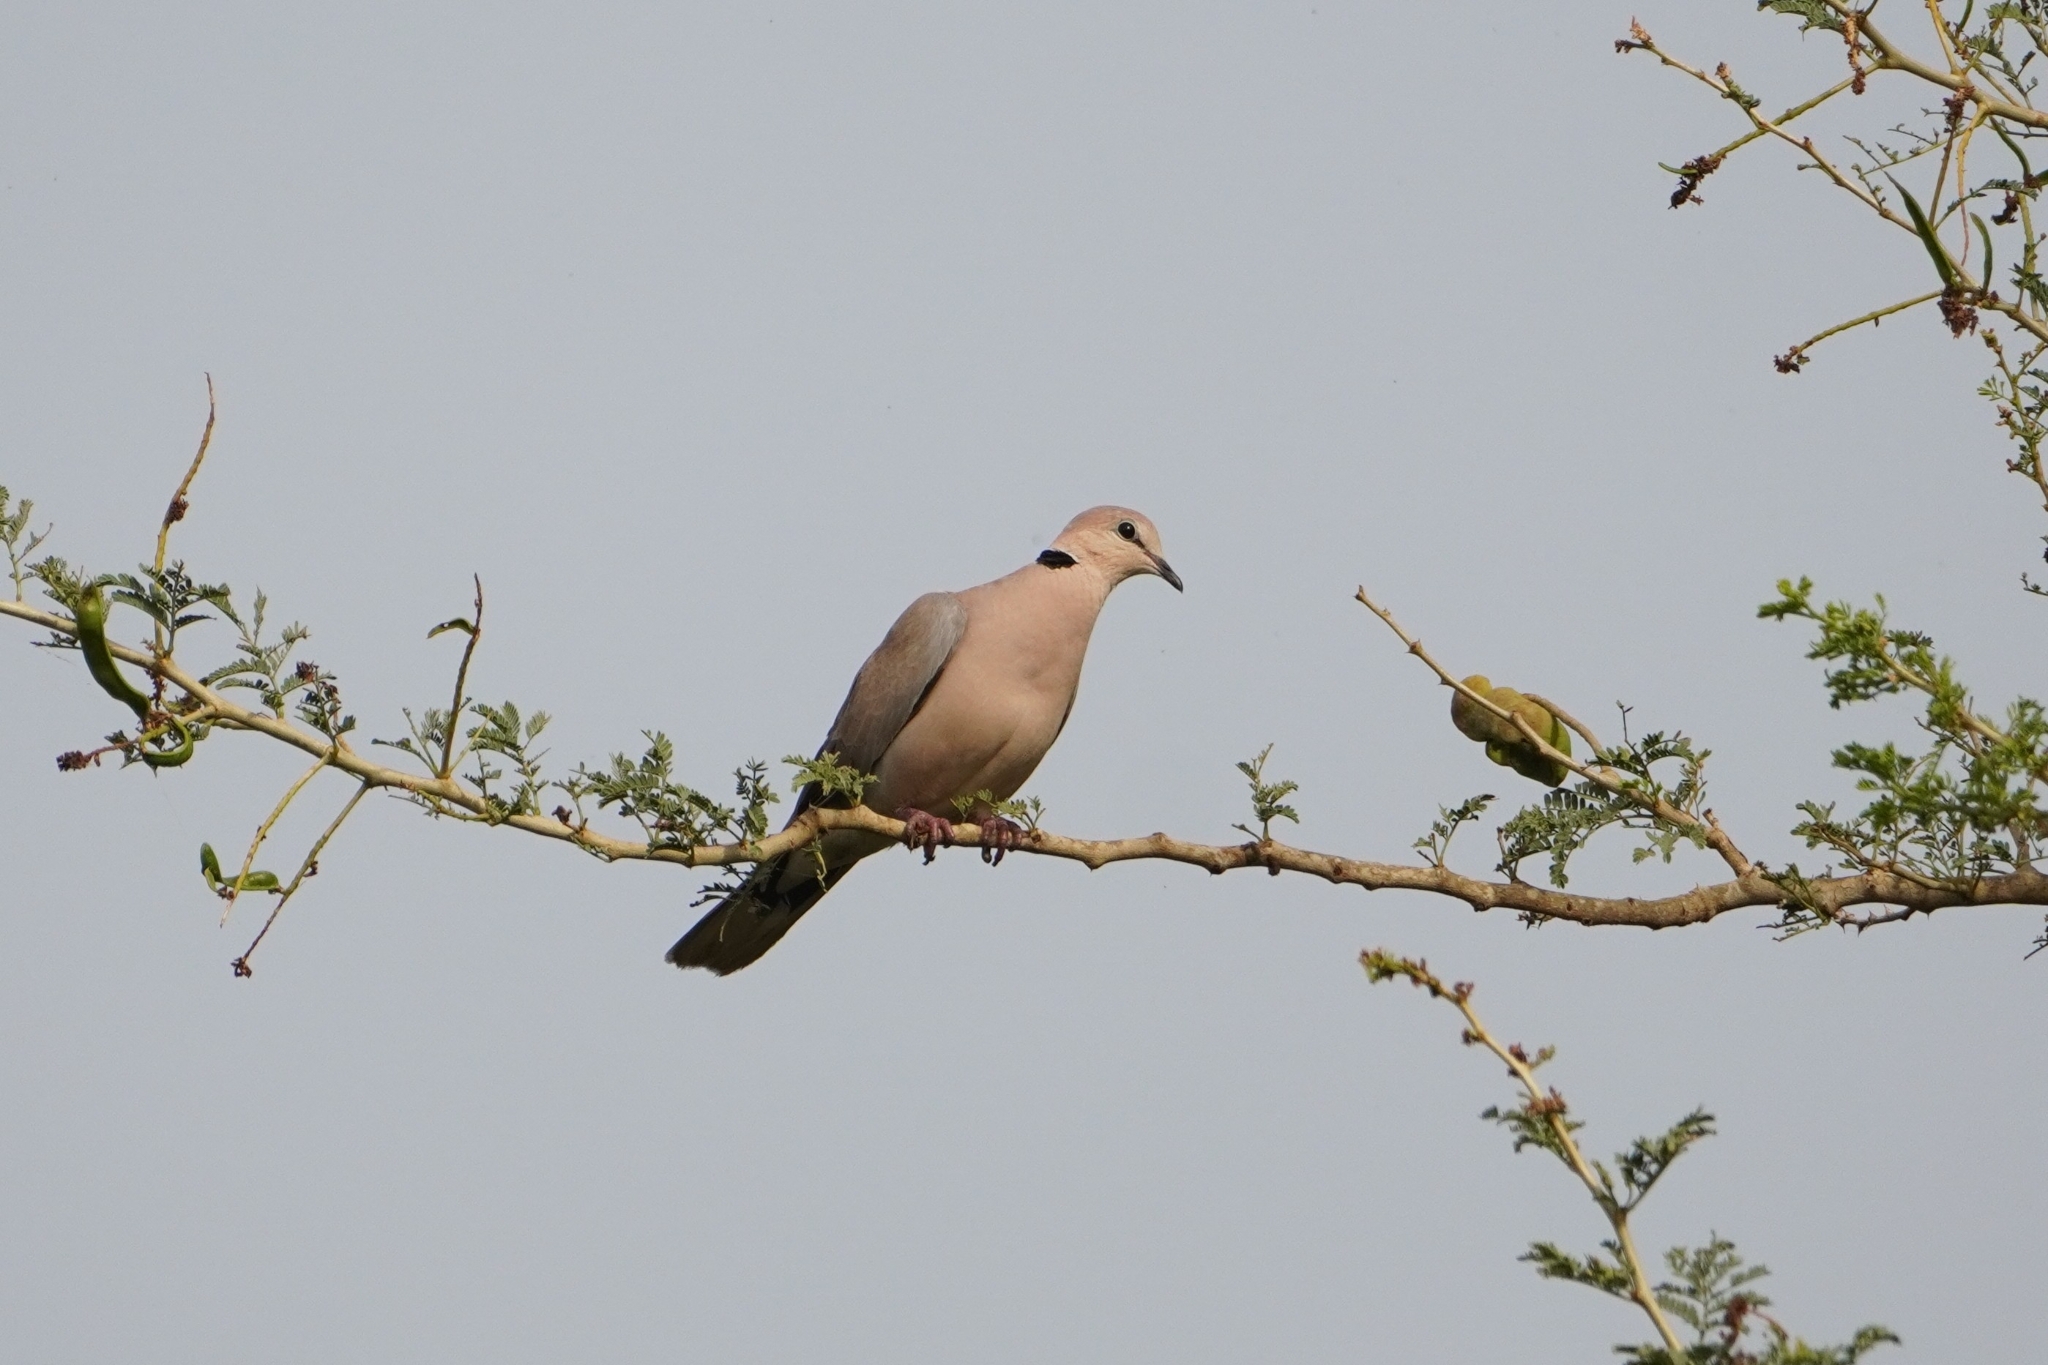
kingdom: Animalia
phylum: Chordata
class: Aves
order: Columbiformes
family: Columbidae
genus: Streptopelia
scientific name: Streptopelia vinacea
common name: Vinaceous dove
